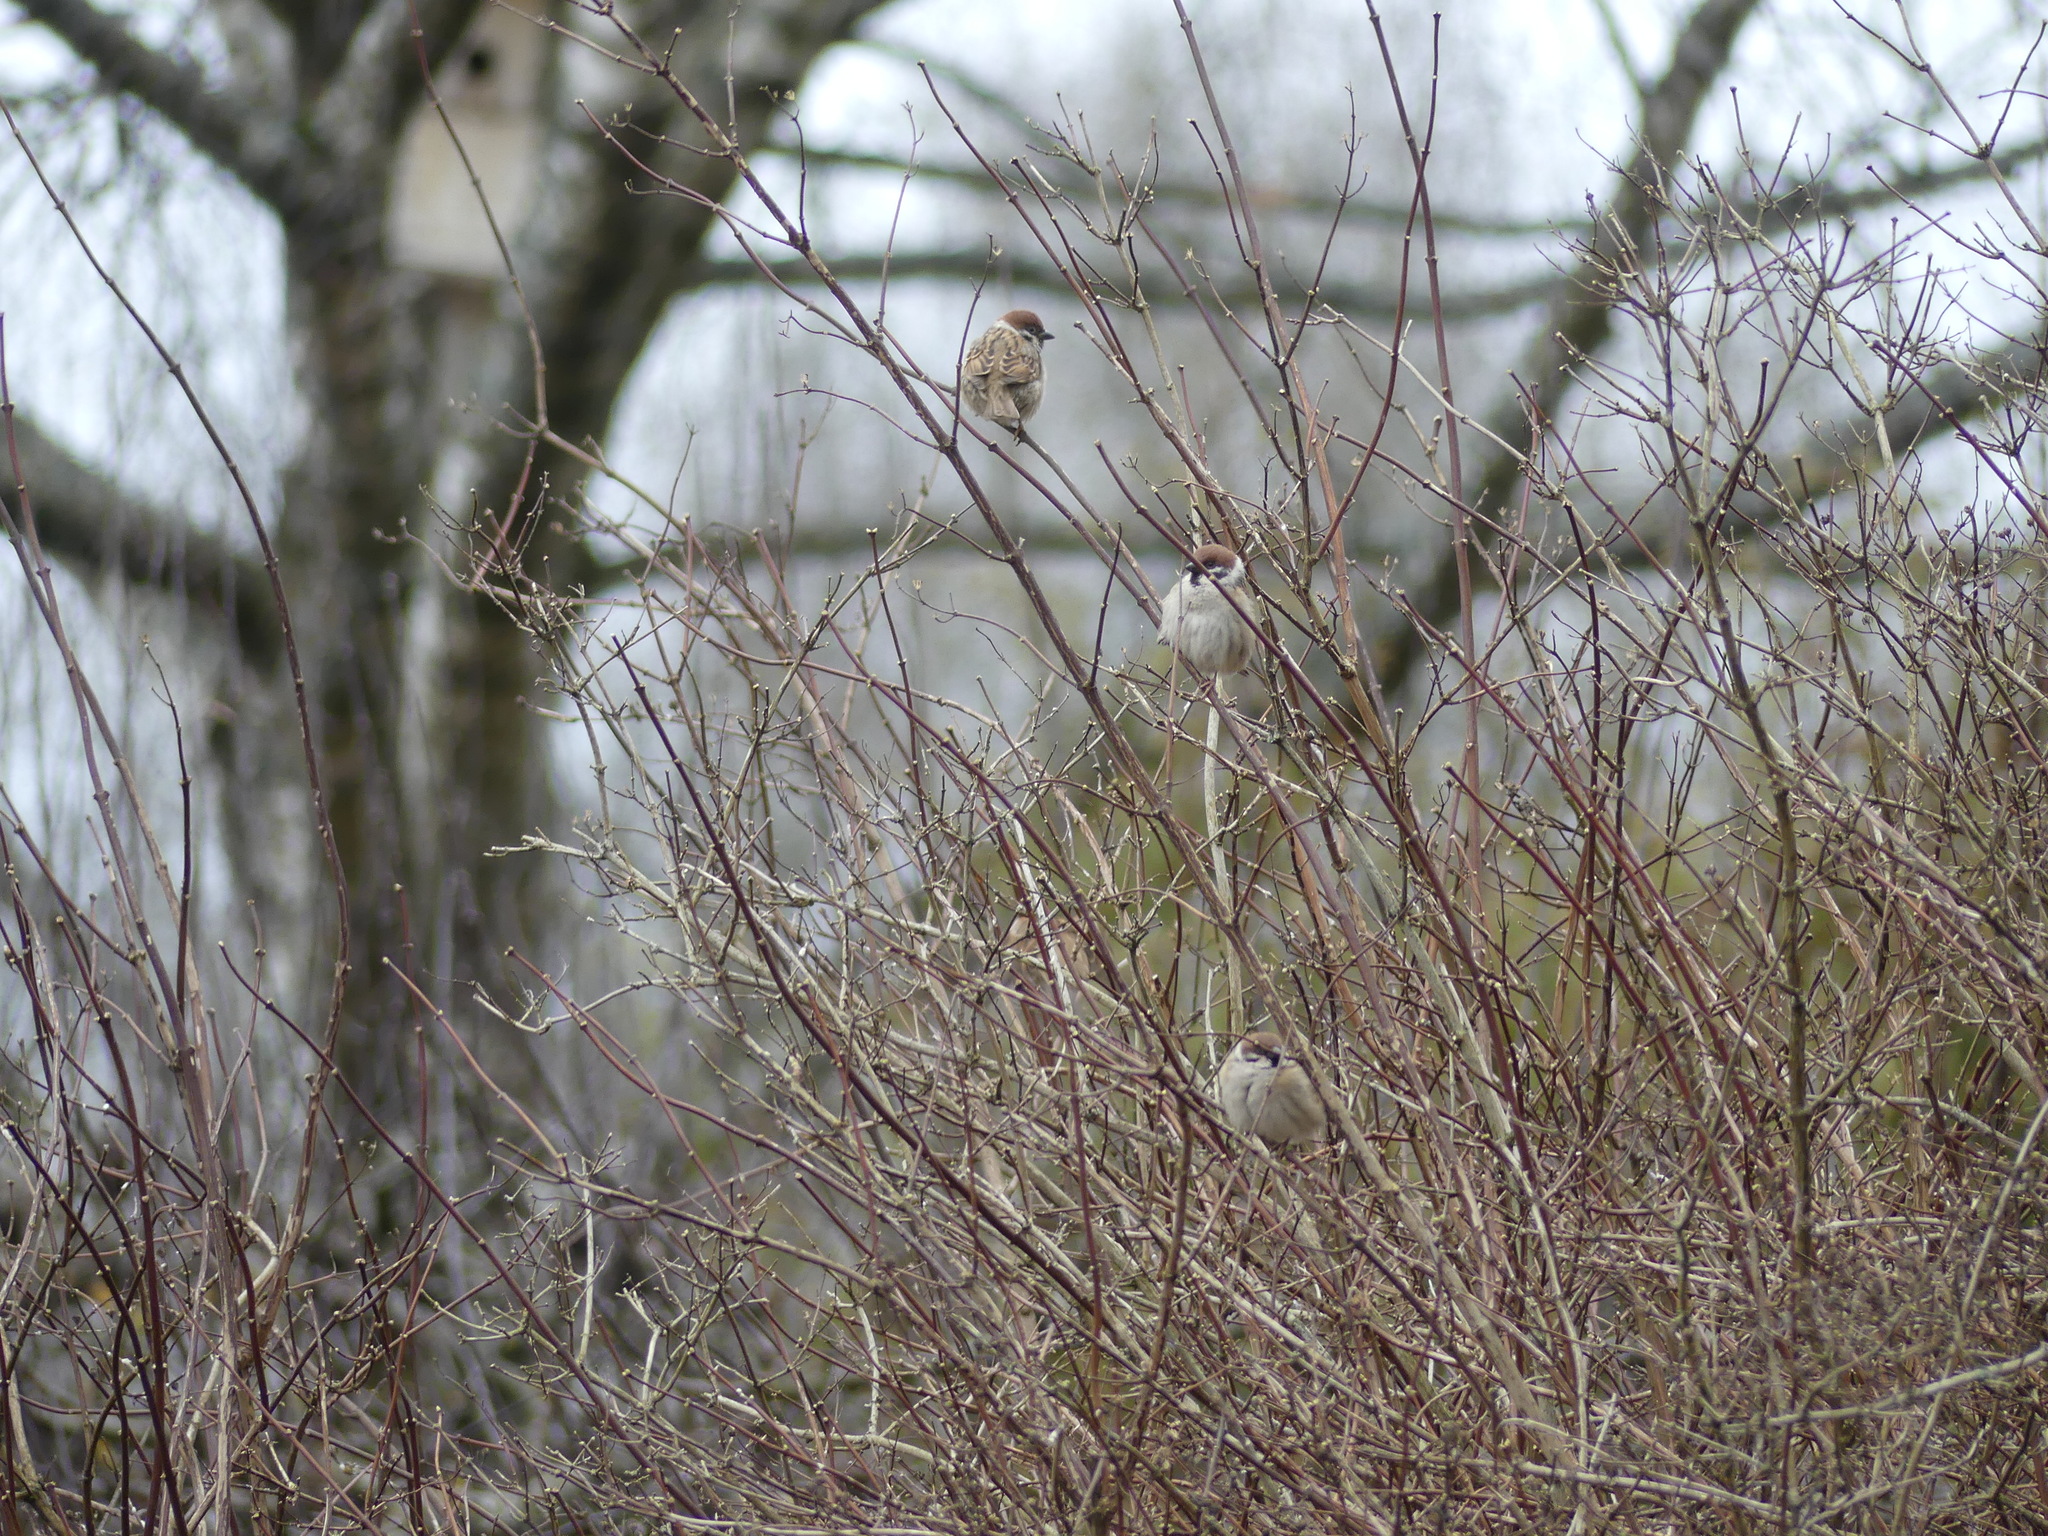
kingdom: Animalia
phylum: Chordata
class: Aves
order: Passeriformes
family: Passeridae
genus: Passer
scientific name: Passer montanus
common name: Eurasian tree sparrow
